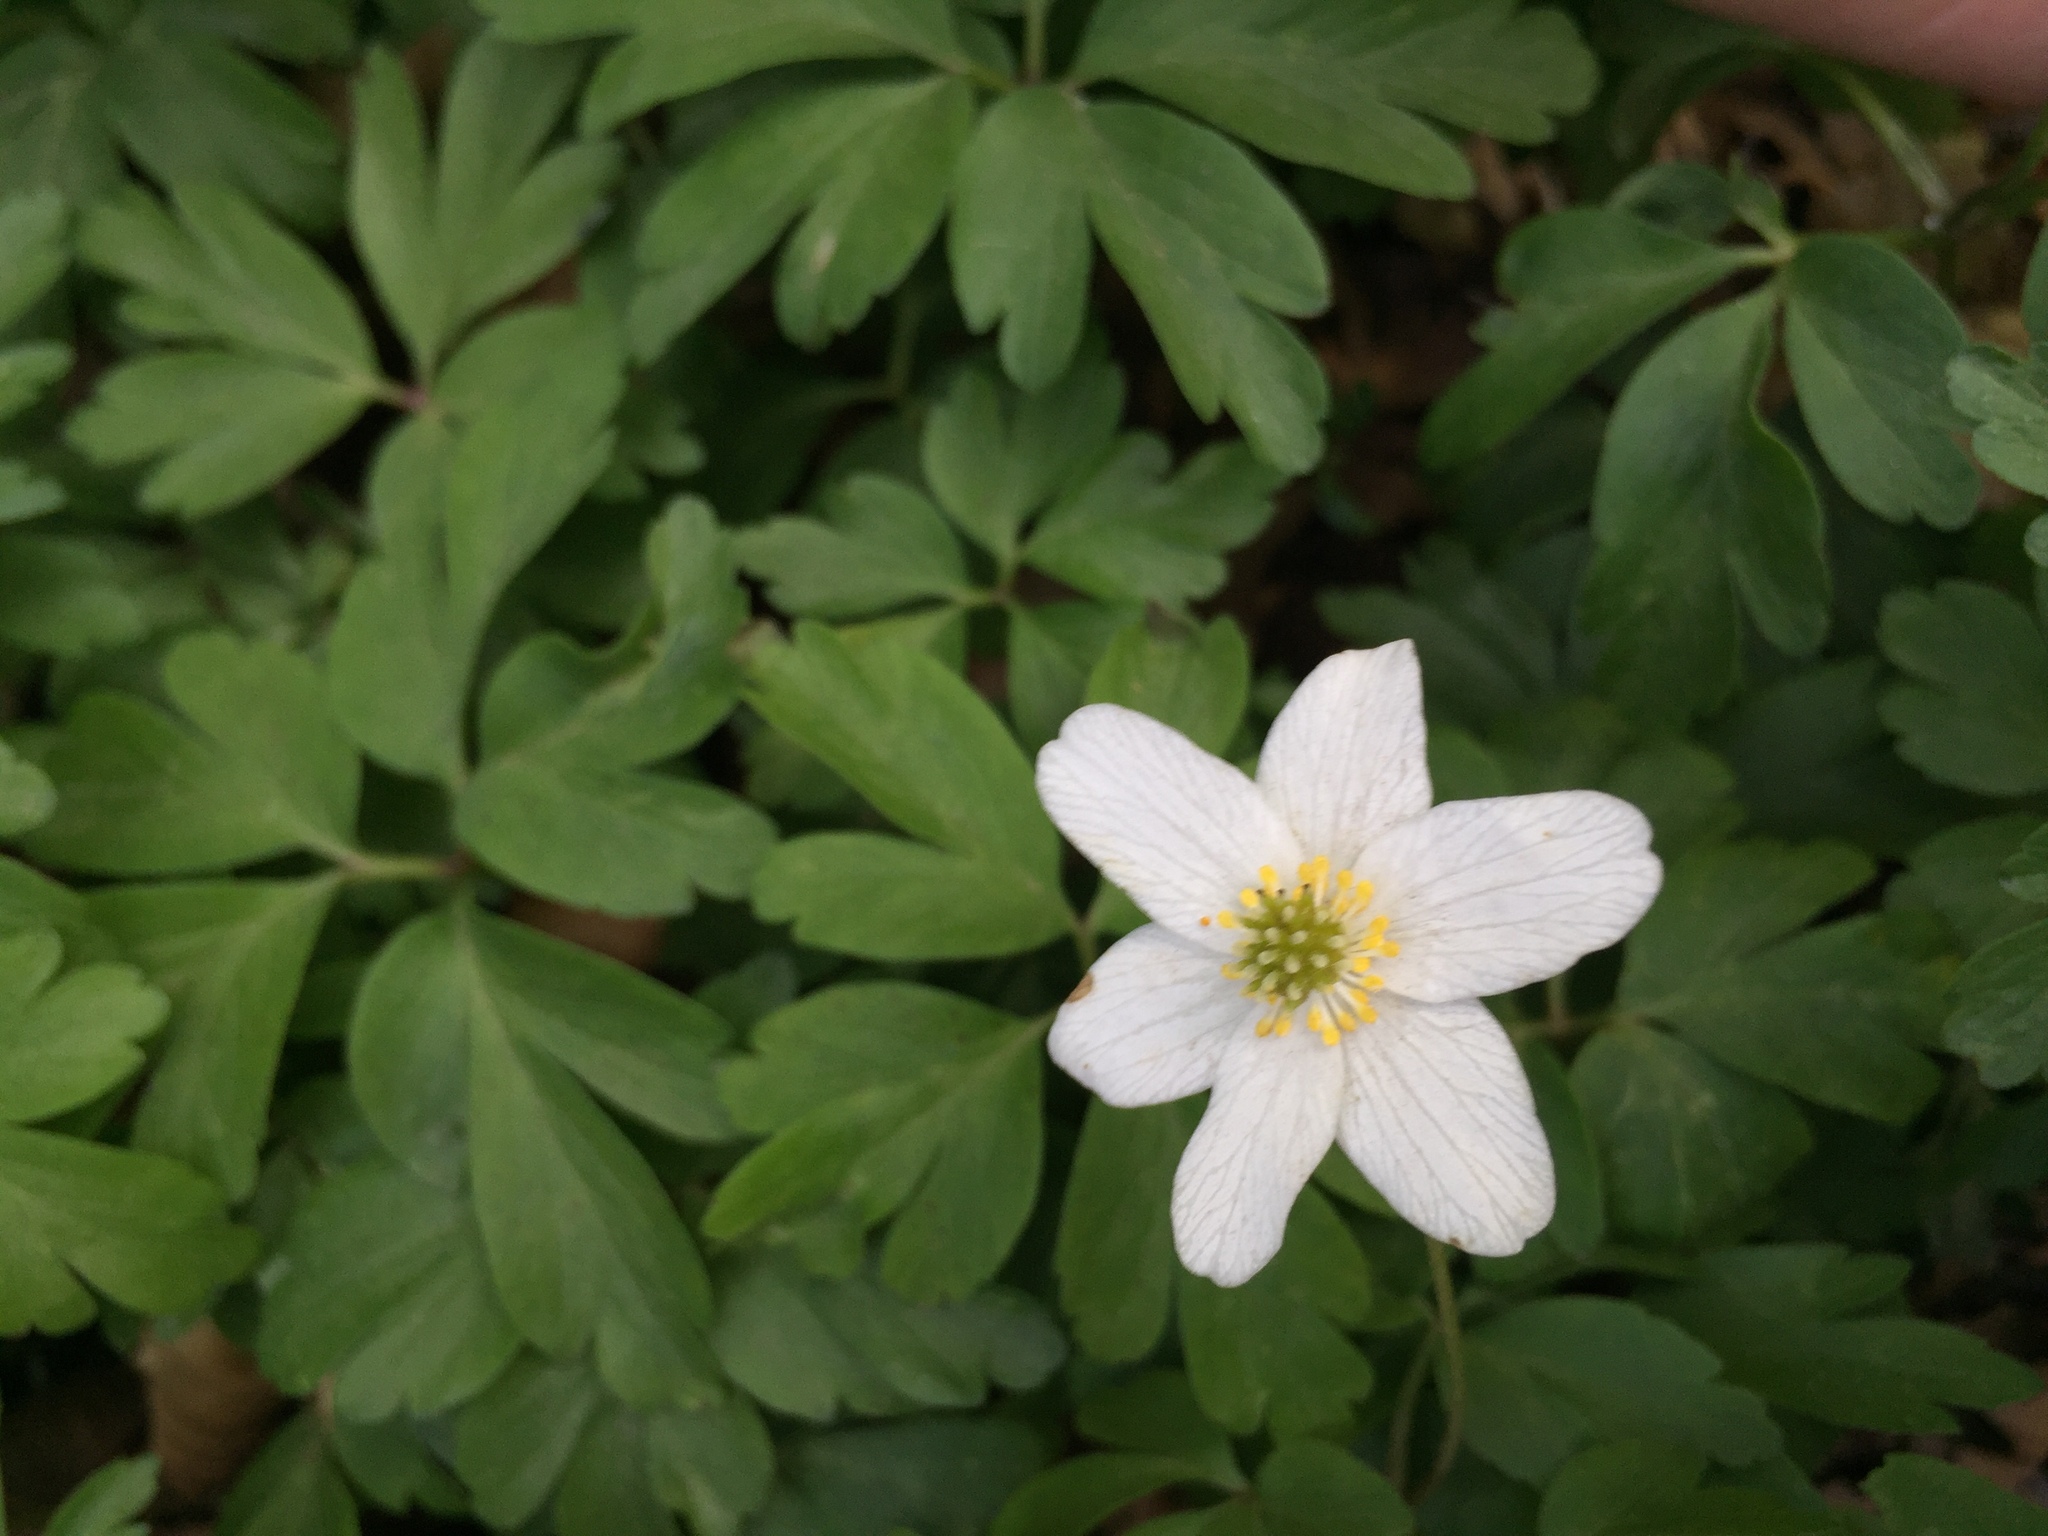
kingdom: Plantae
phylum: Tracheophyta
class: Magnoliopsida
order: Ranunculales
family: Ranunculaceae
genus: Anemone
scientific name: Anemone nemorosa
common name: Wood anemone
